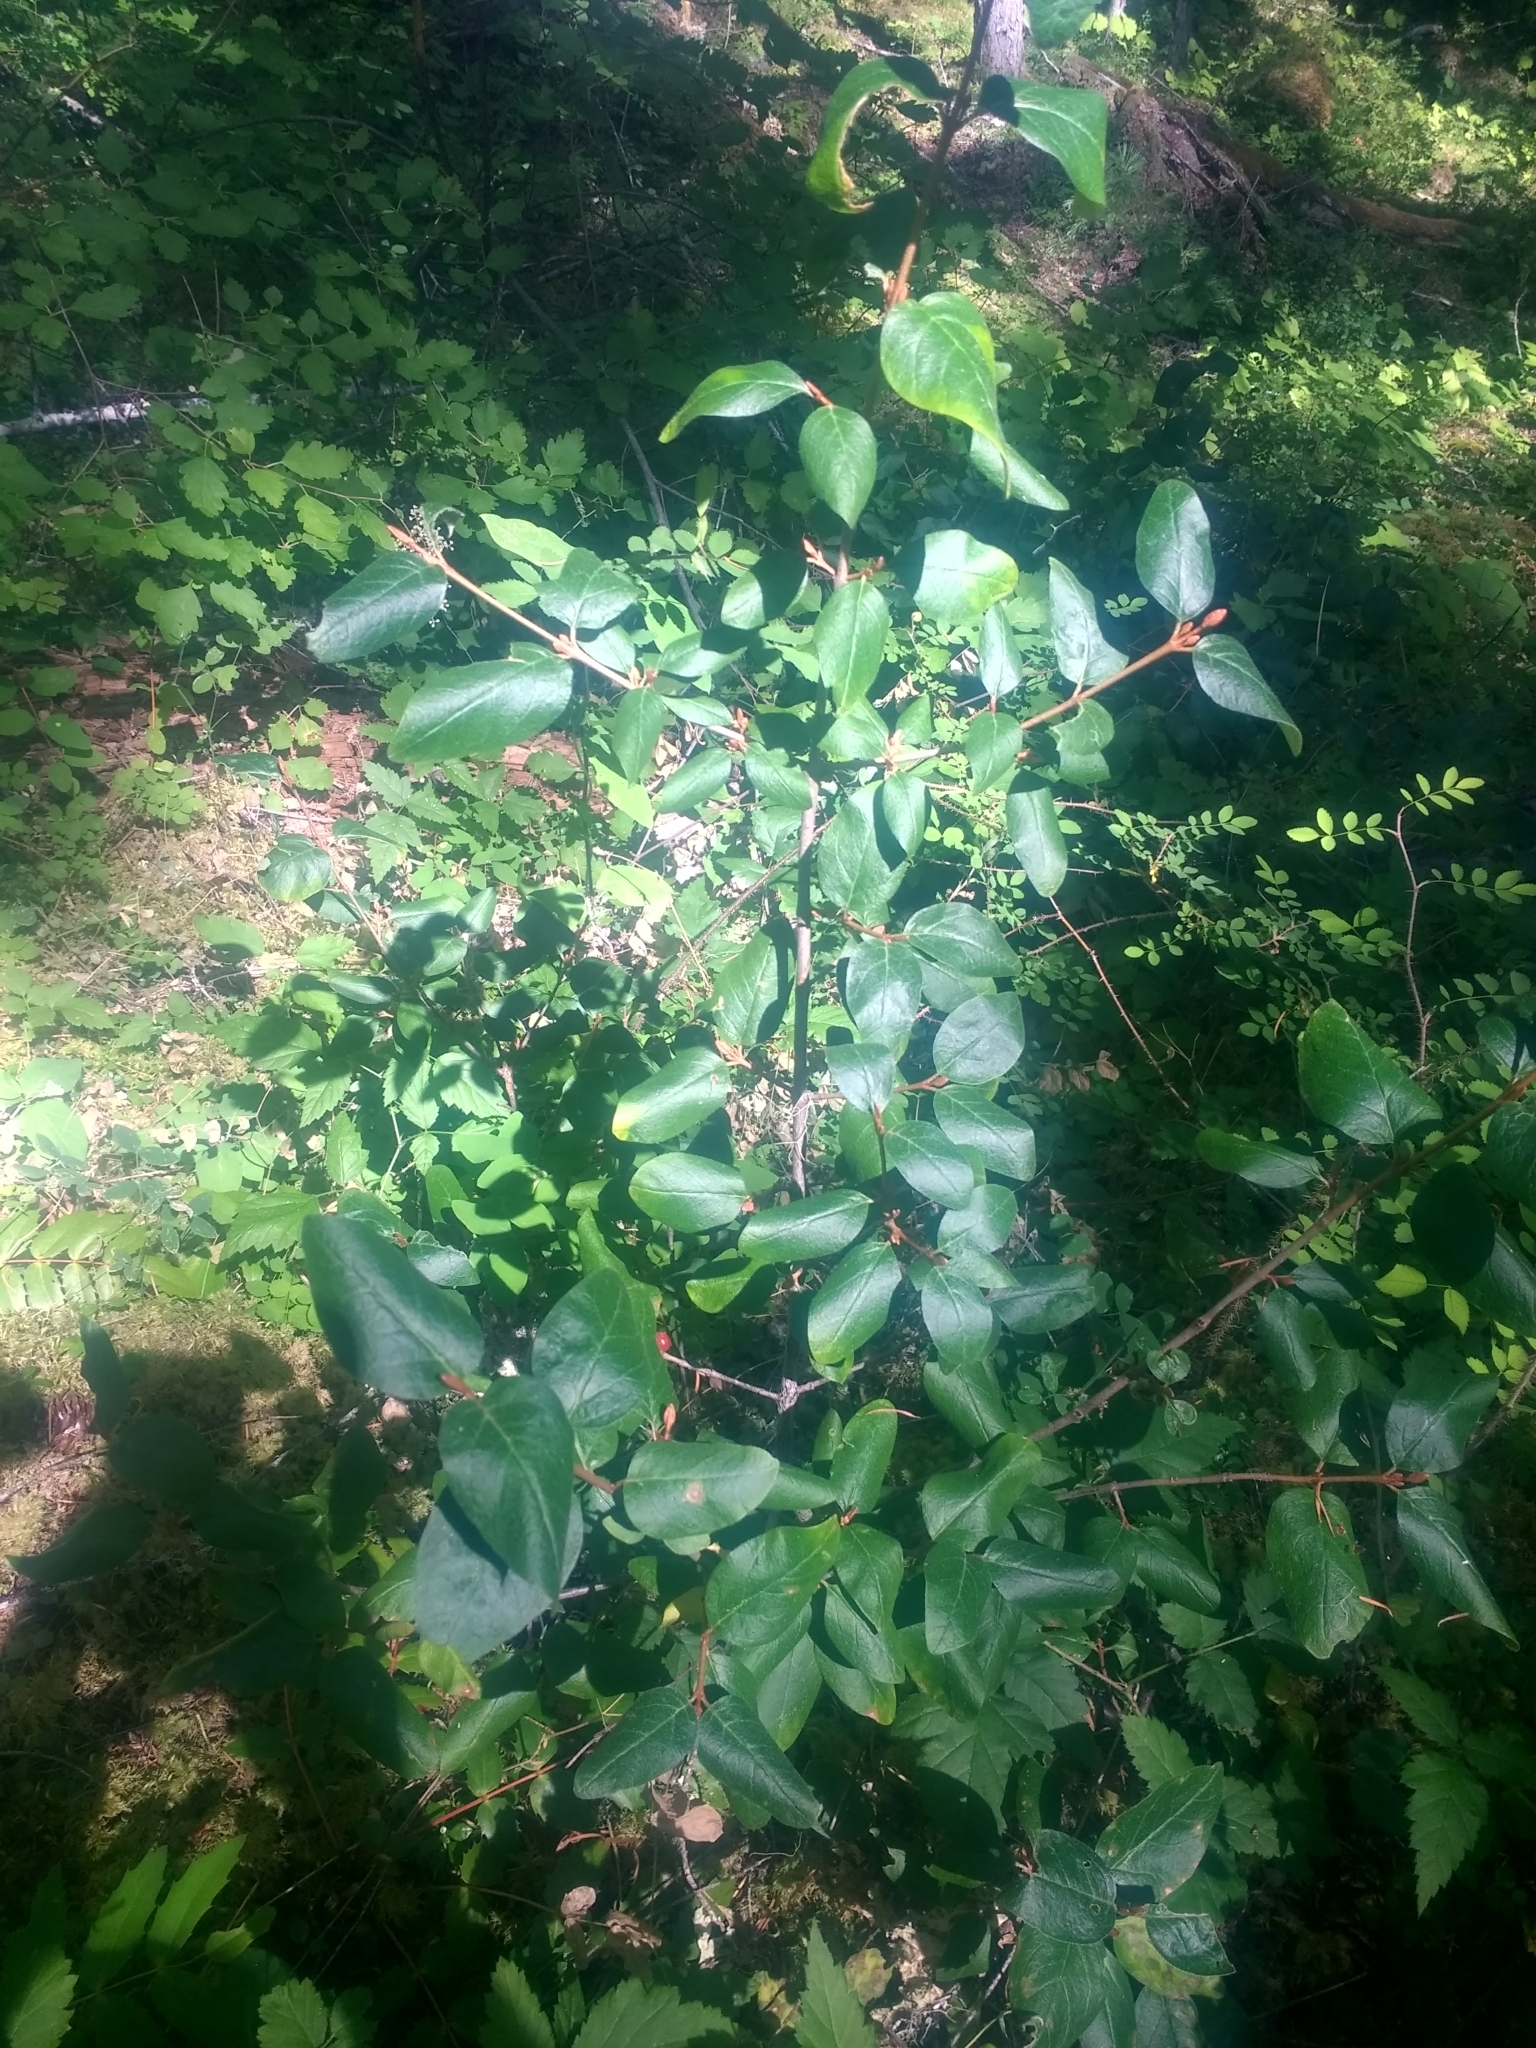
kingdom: Plantae
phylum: Tracheophyta
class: Magnoliopsida
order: Rosales
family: Elaeagnaceae
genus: Shepherdia
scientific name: Shepherdia canadensis
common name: Soapberry
